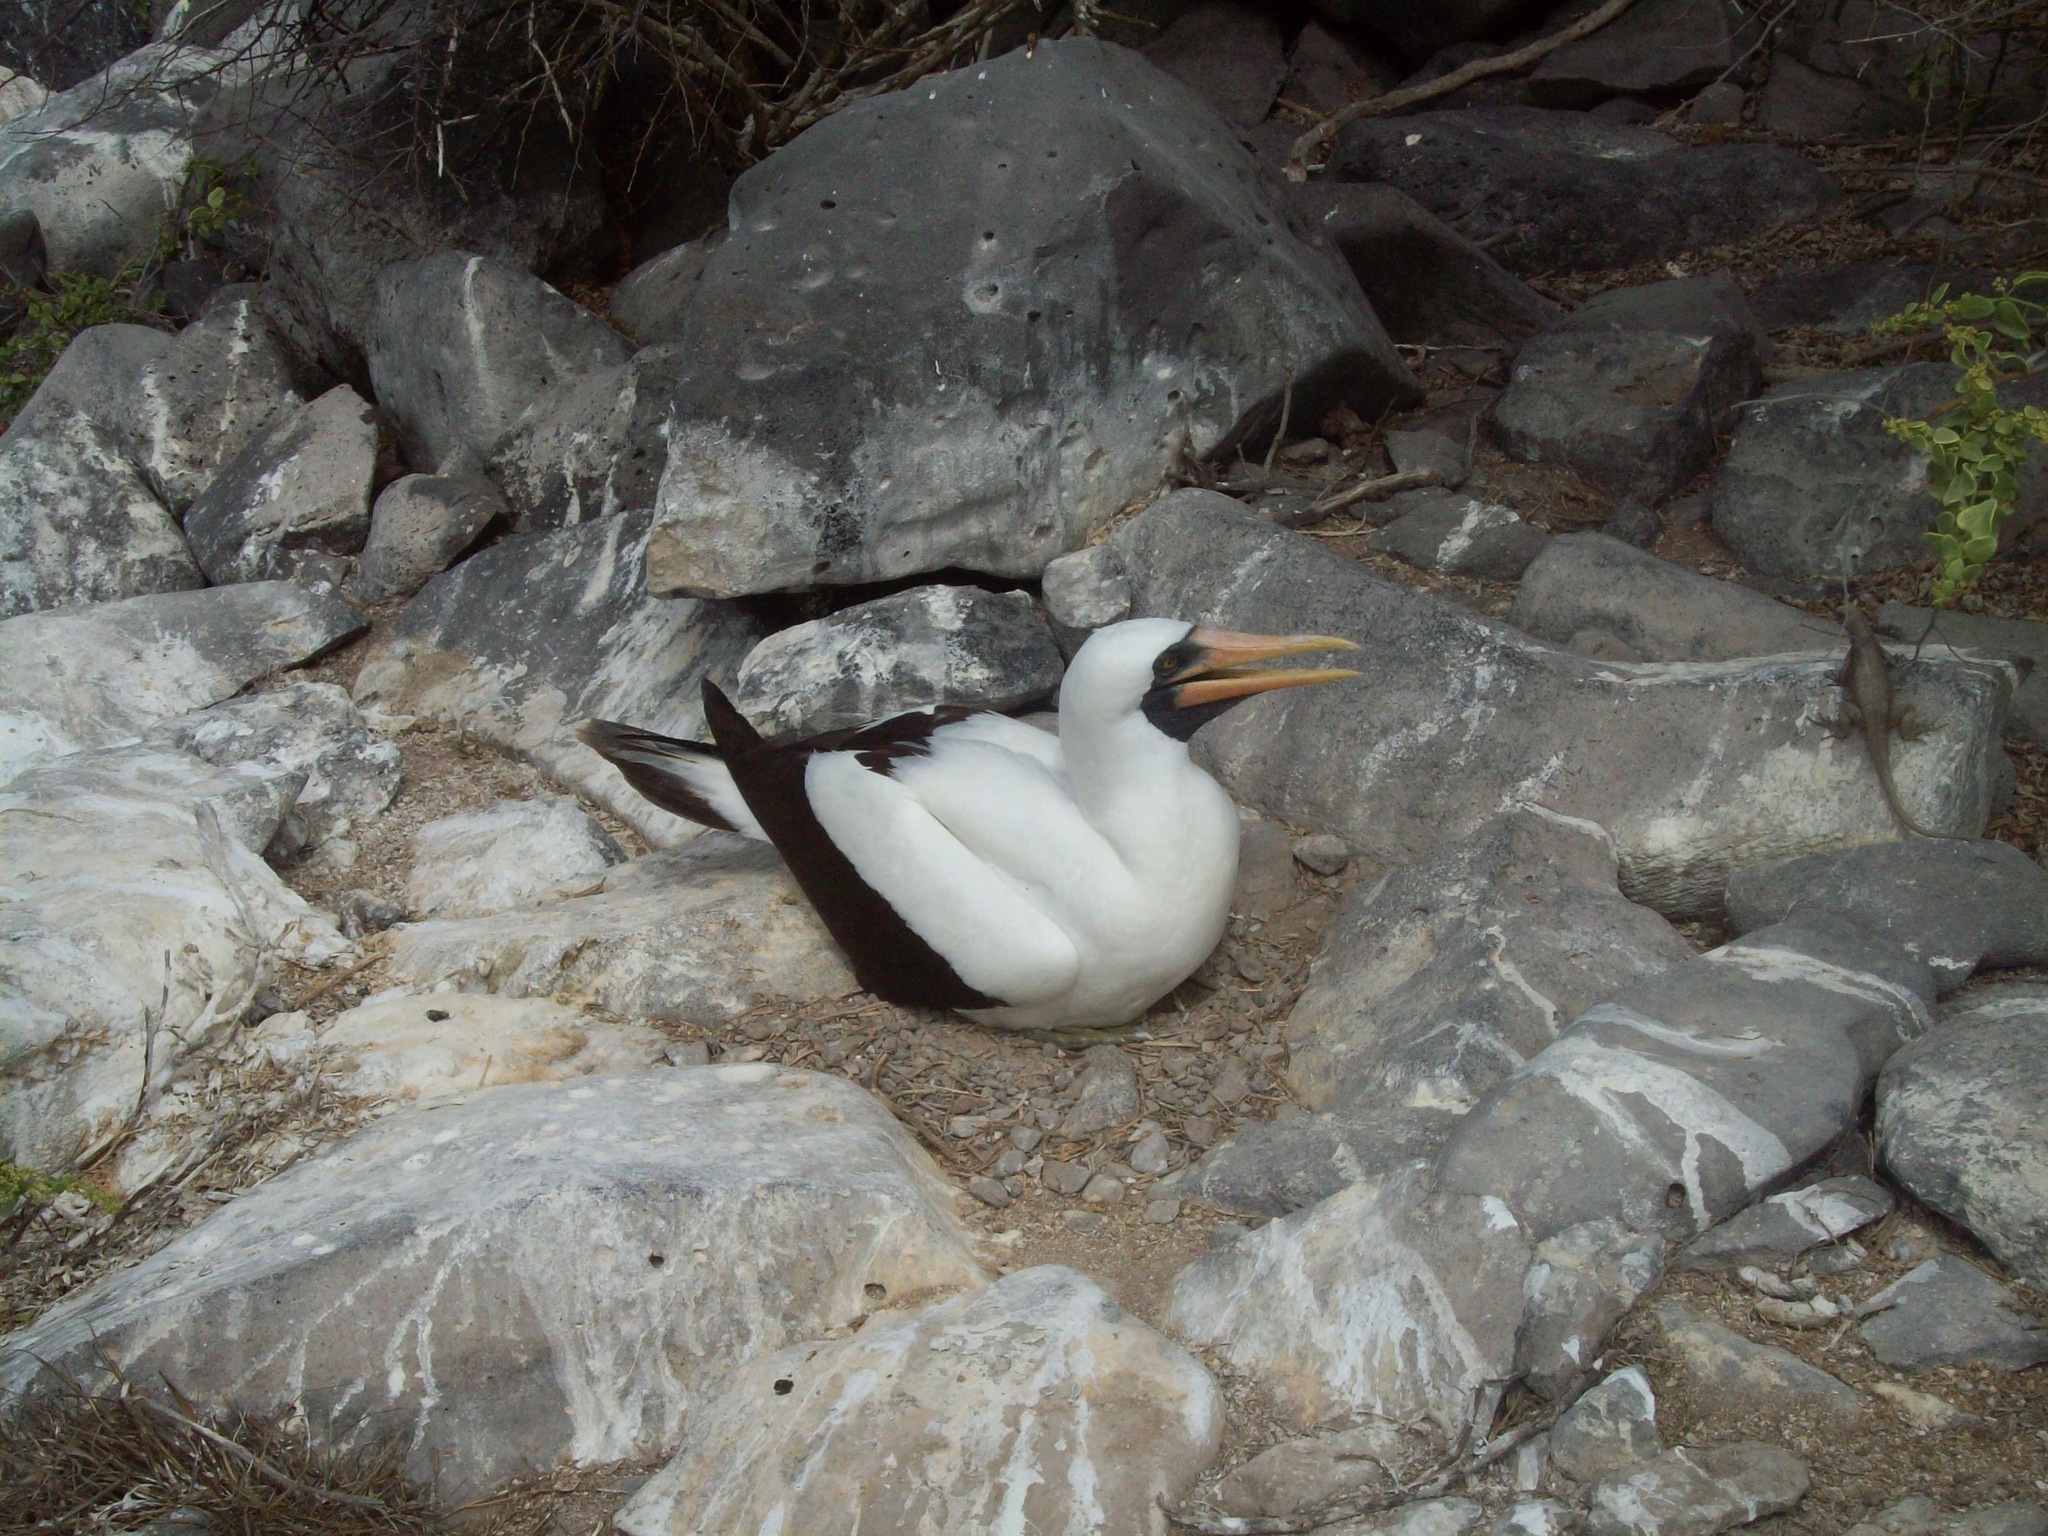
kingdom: Animalia
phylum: Chordata
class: Aves
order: Suliformes
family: Sulidae
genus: Sula
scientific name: Sula granti
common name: Nazca booby
